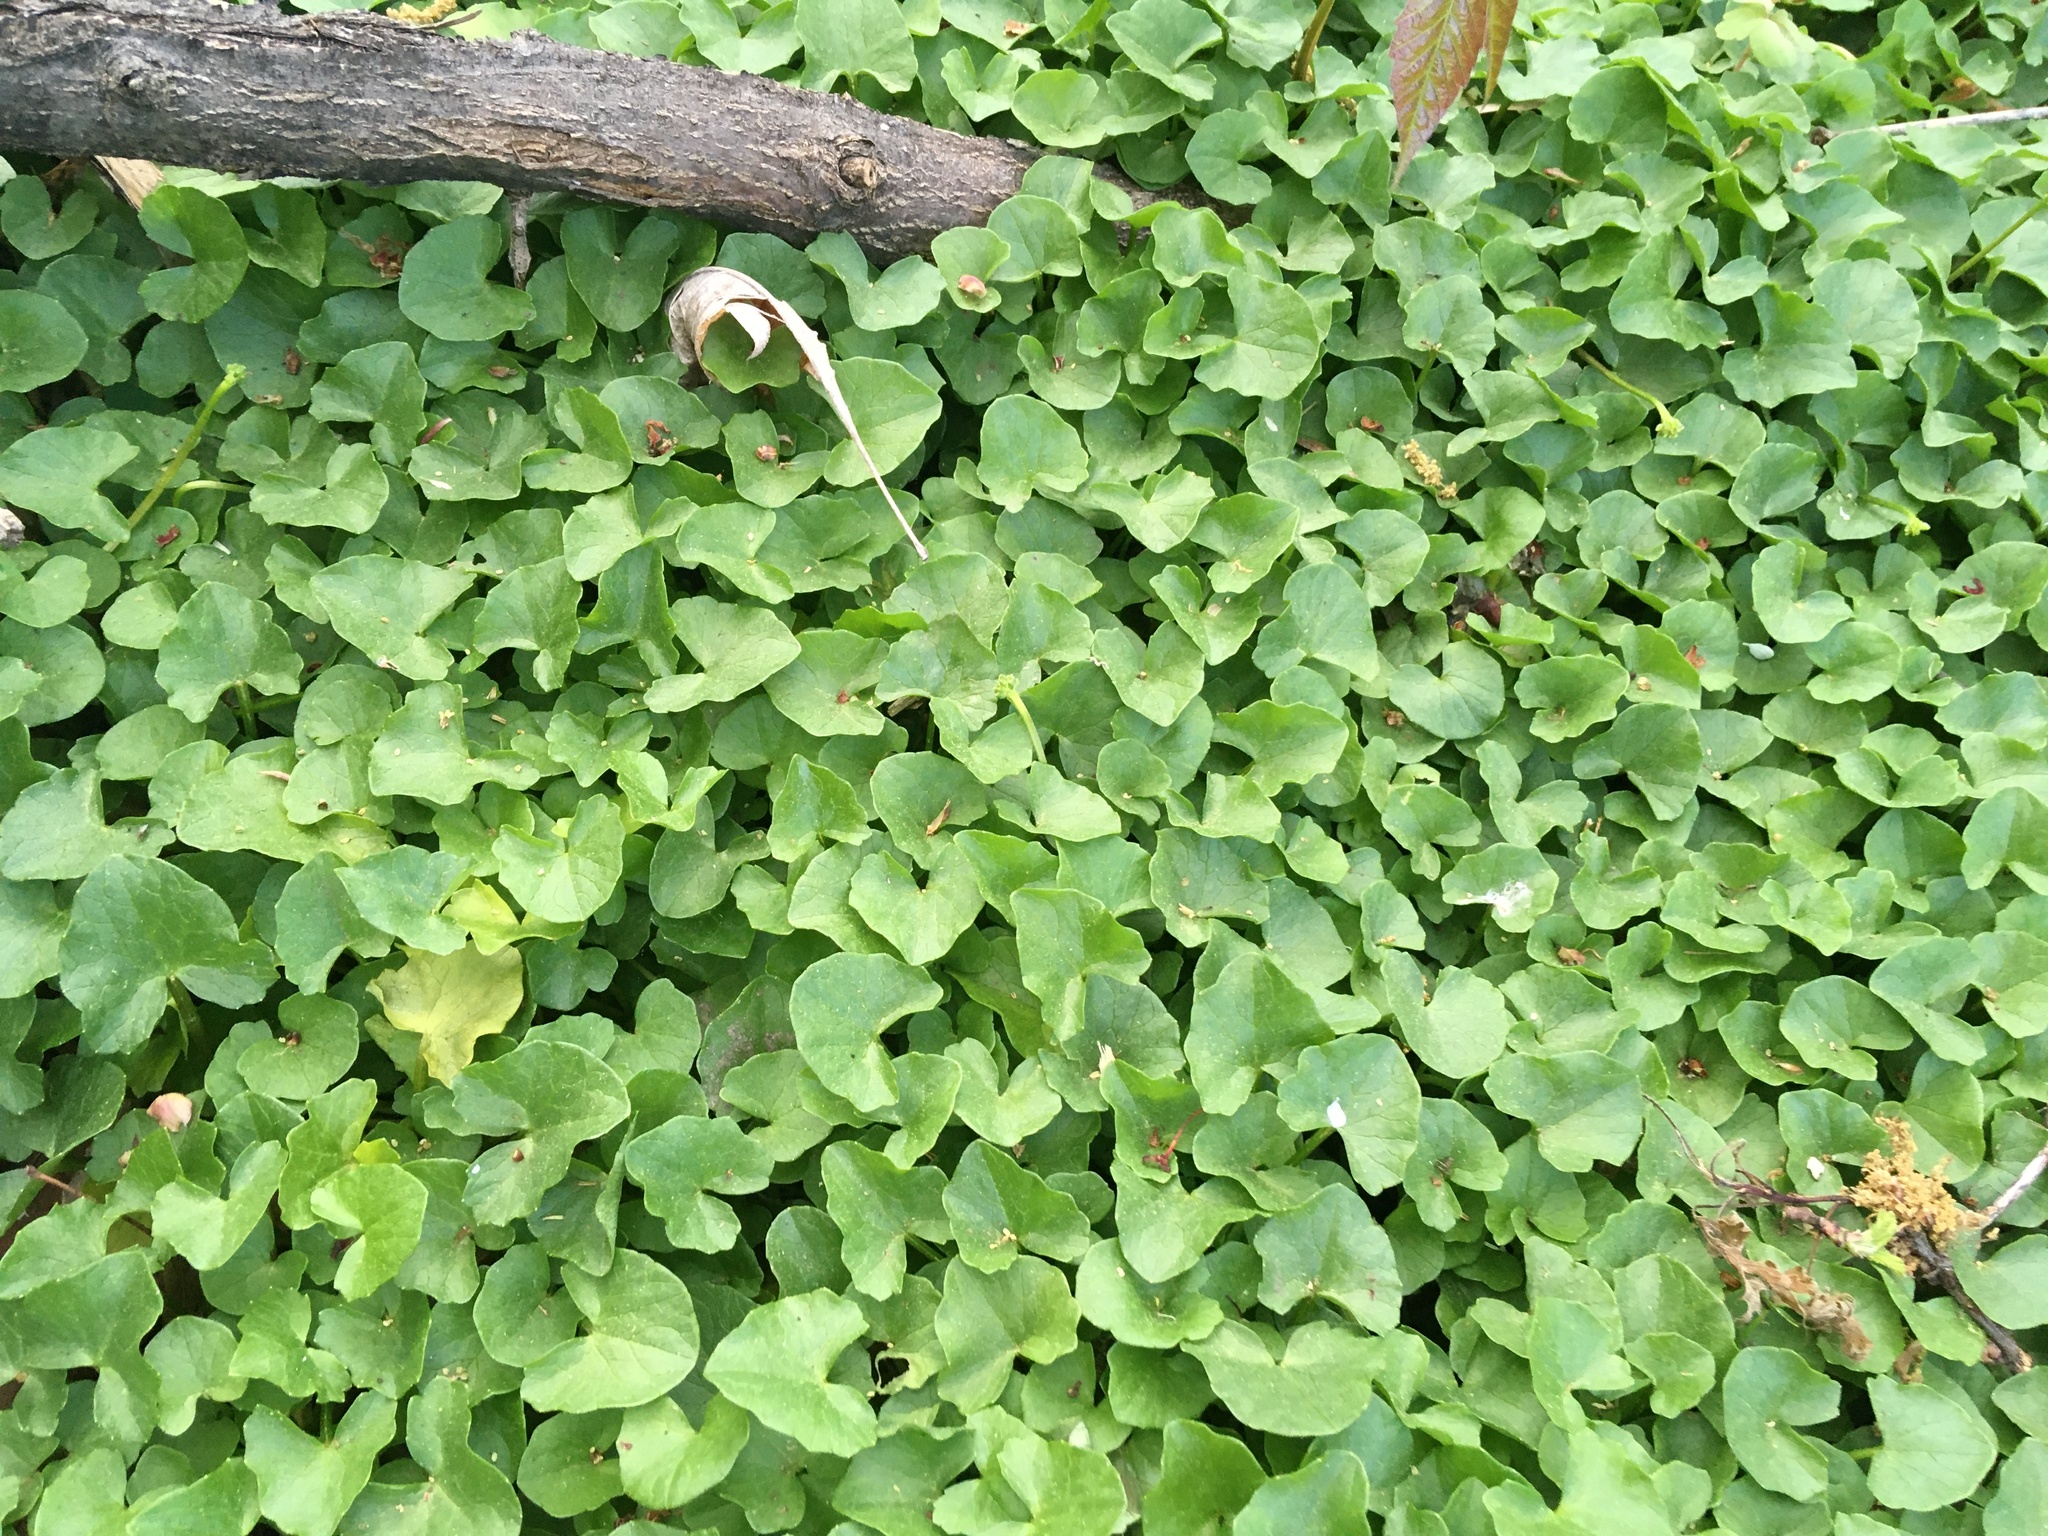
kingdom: Plantae
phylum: Tracheophyta
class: Magnoliopsida
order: Ranunculales
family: Ranunculaceae
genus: Ficaria
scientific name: Ficaria verna
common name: Lesser celandine
